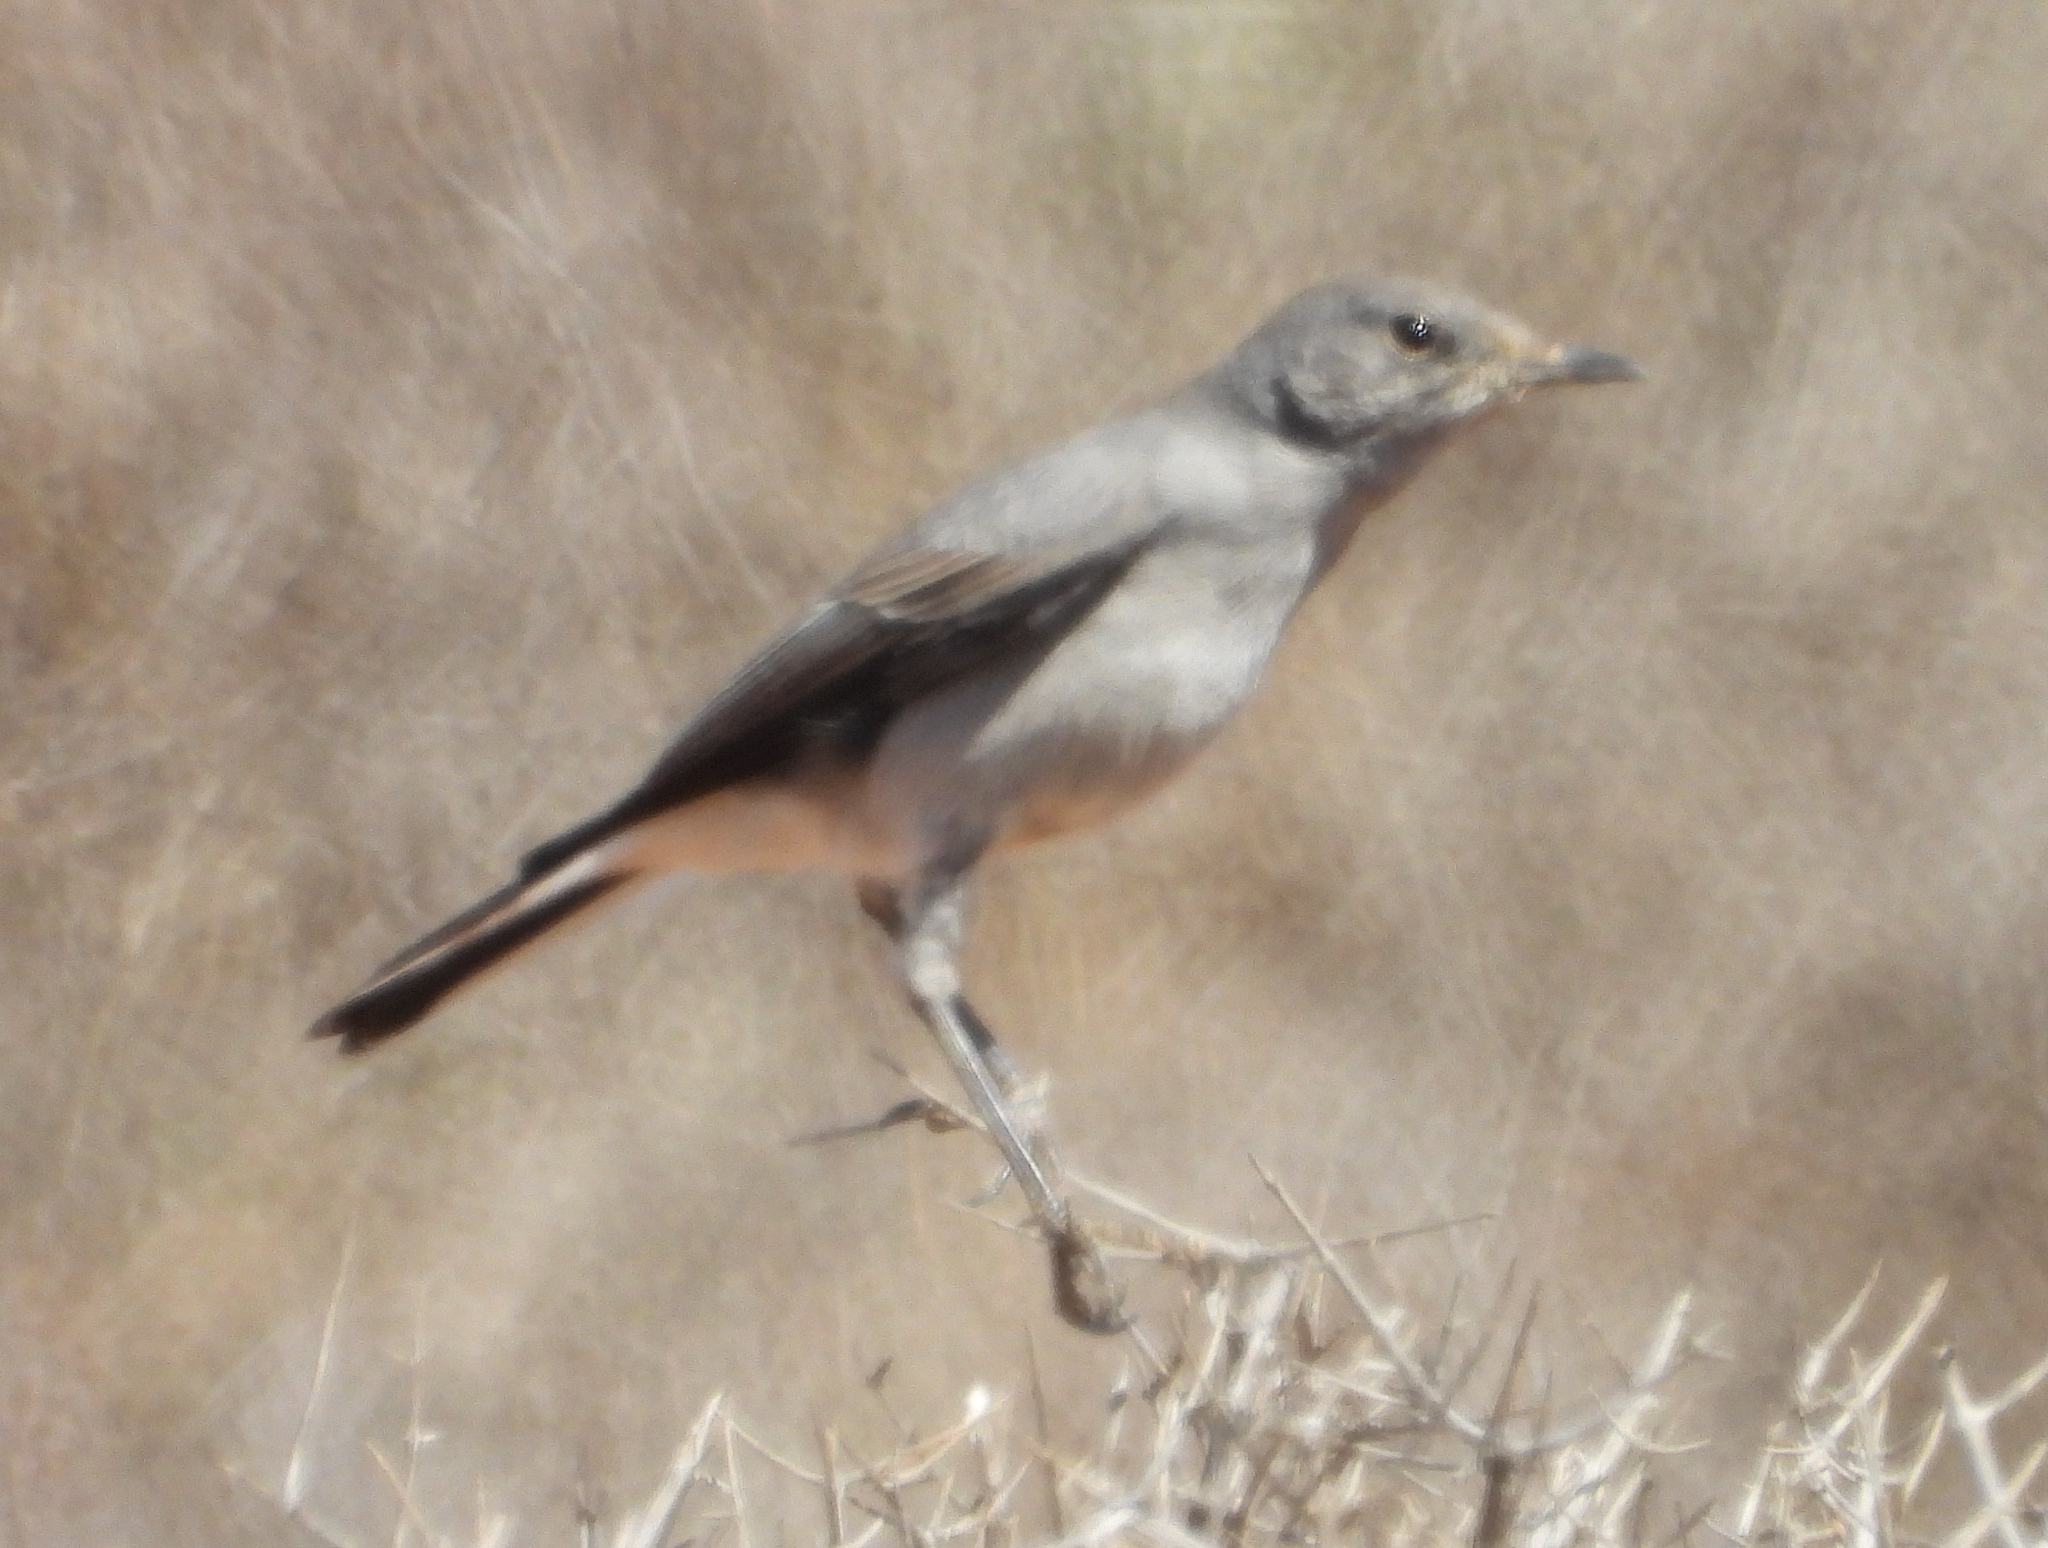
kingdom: Animalia
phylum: Chordata
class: Aves
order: Passeriformes
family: Muscicapidae
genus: Emarginata
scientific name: Emarginata schlegelii
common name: Karoo chat
